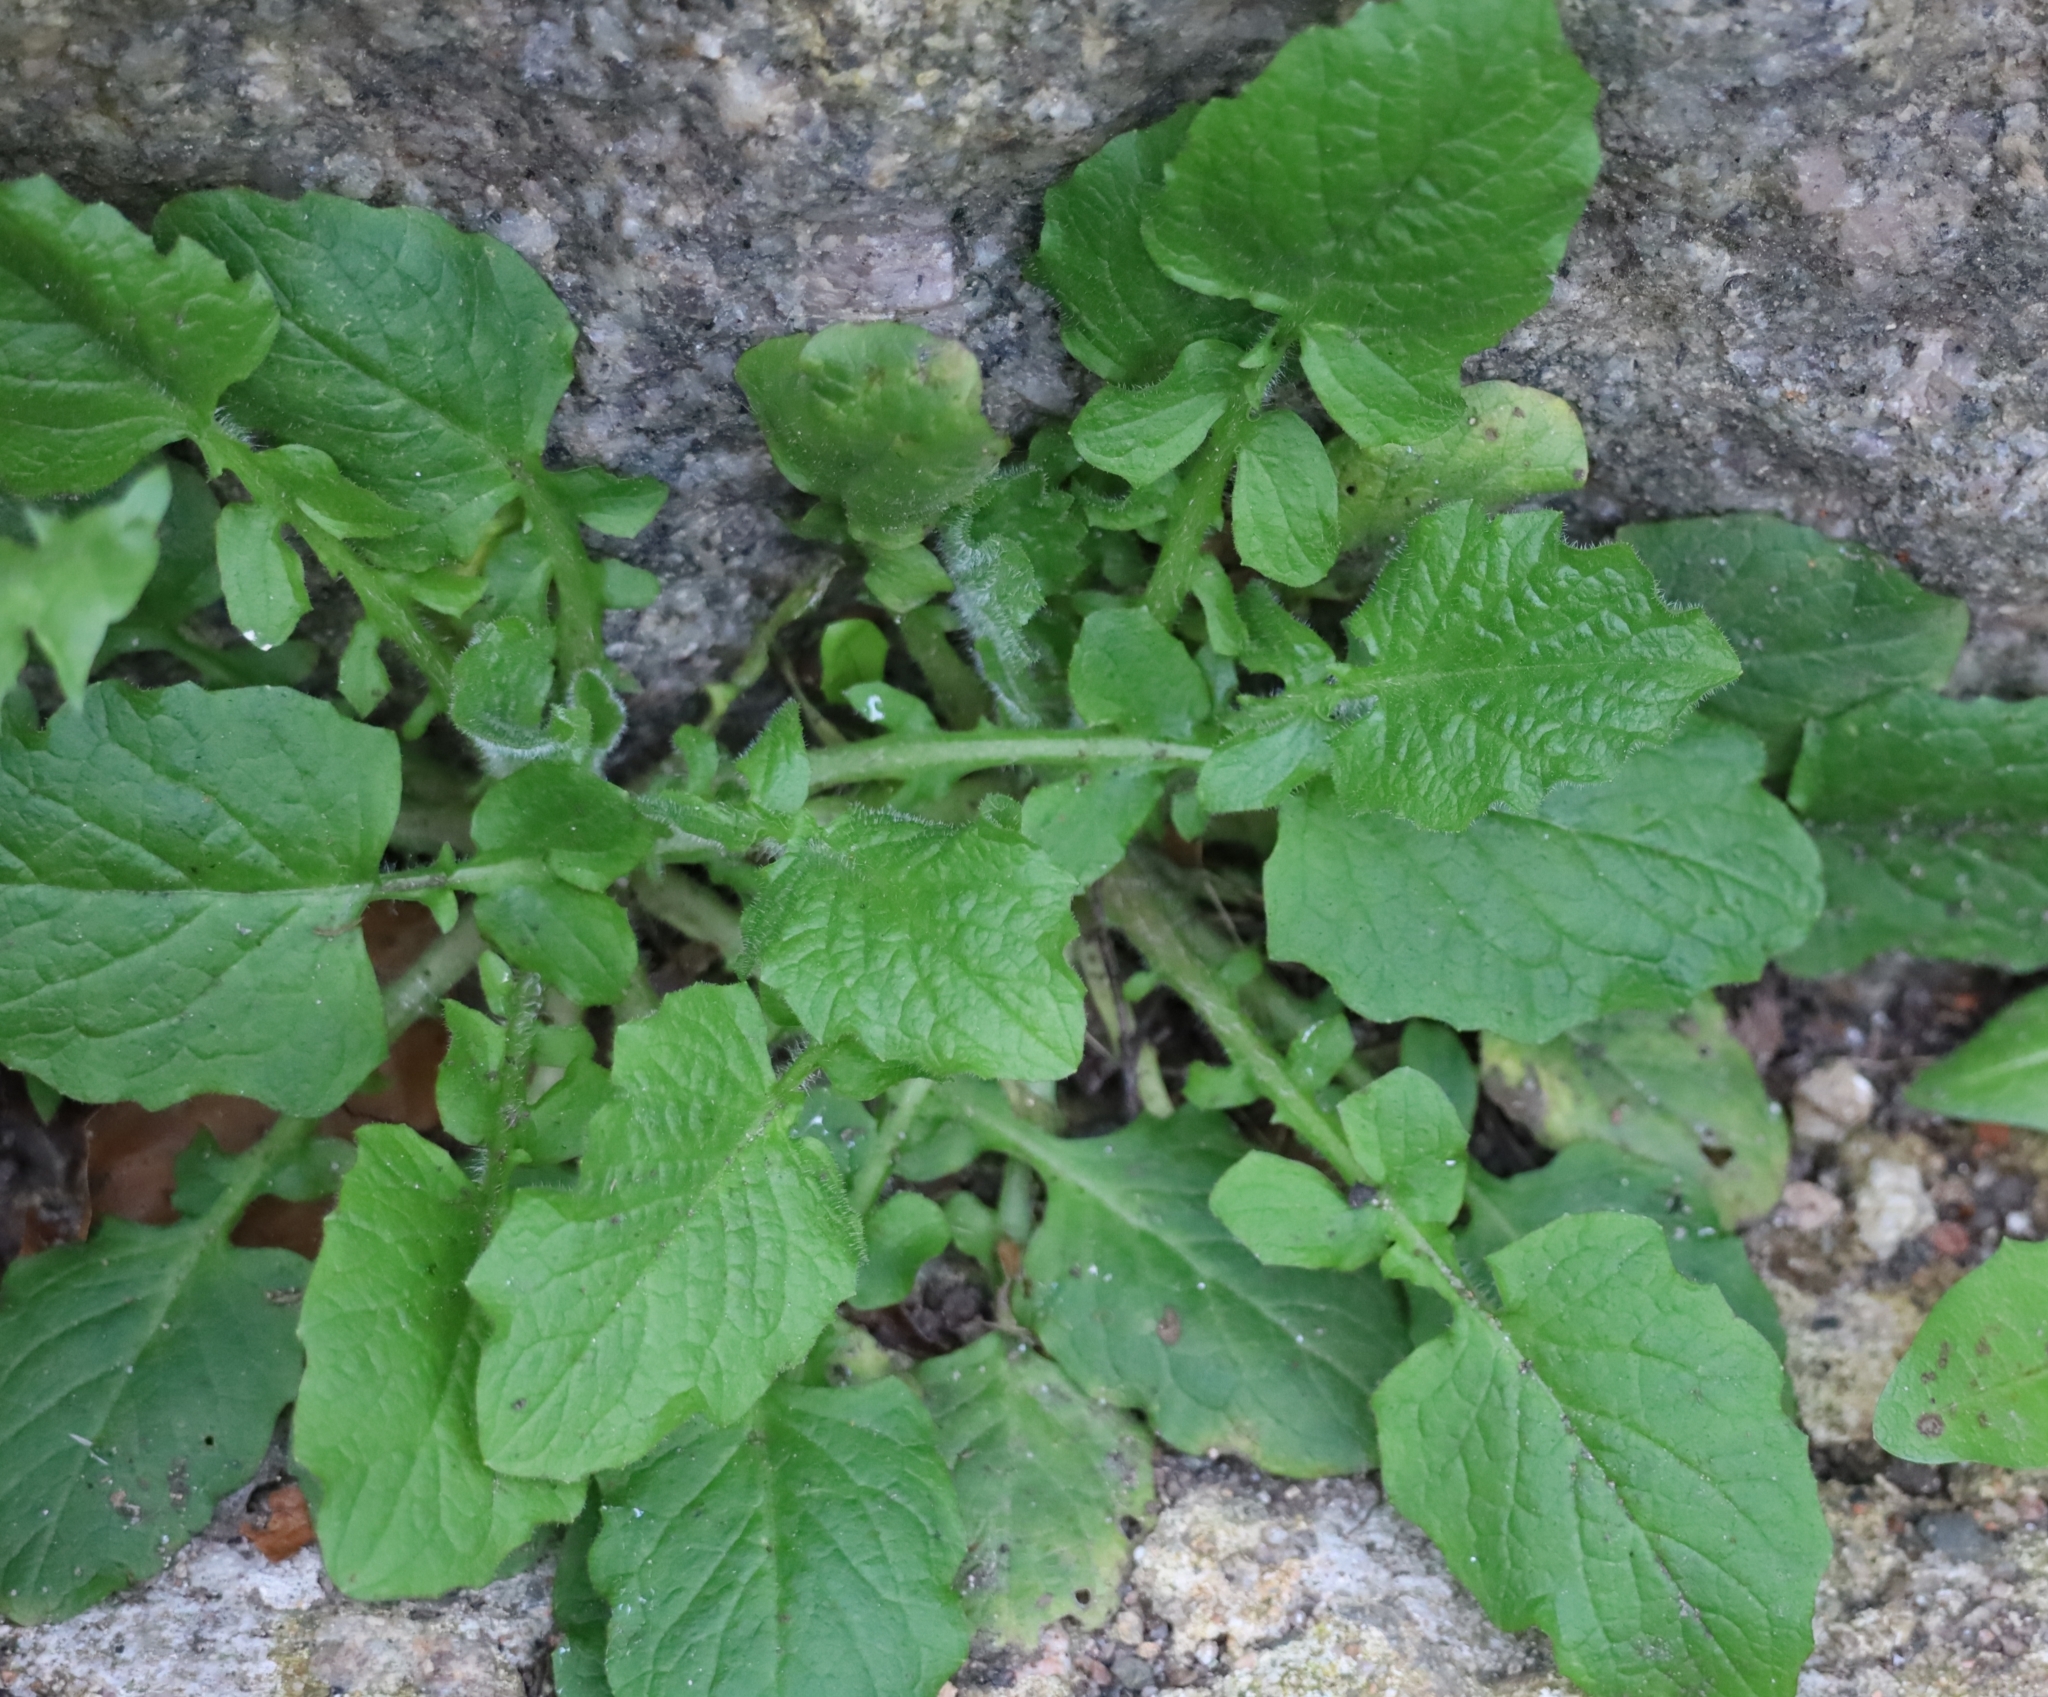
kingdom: Plantae
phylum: Tracheophyta
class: Magnoliopsida
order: Asterales
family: Asteraceae
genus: Lapsana
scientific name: Lapsana communis
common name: Nipplewort
